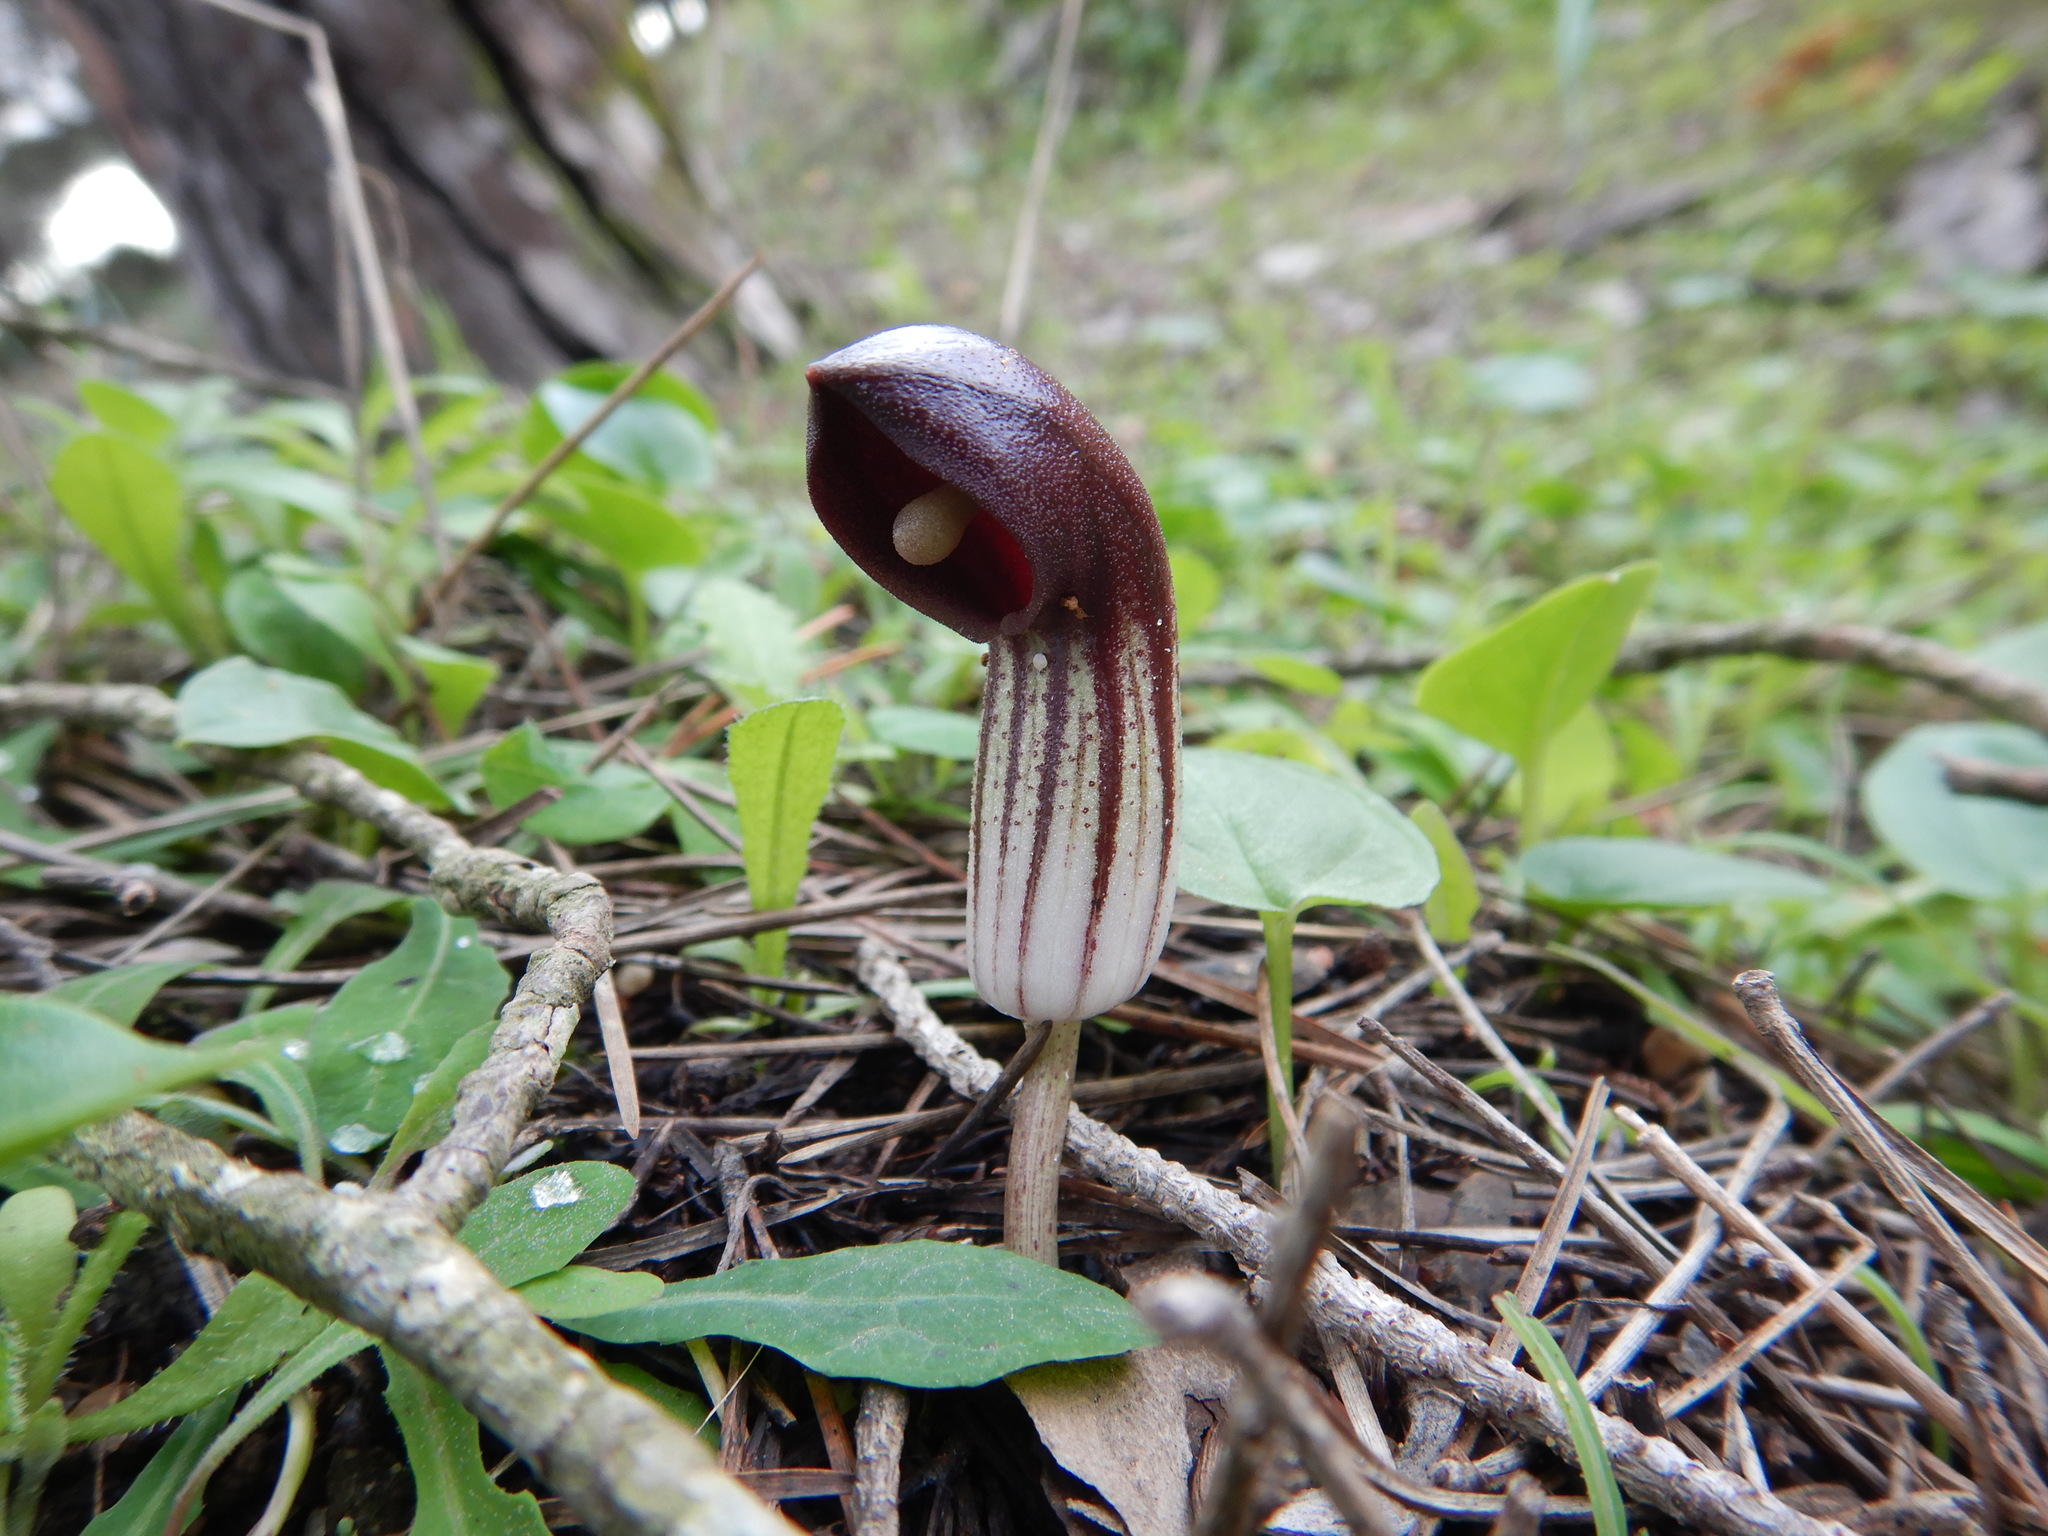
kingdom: Plantae
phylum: Tracheophyta
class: Liliopsida
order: Alismatales
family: Araceae
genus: Arisarum
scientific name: Arisarum simorrhinum
